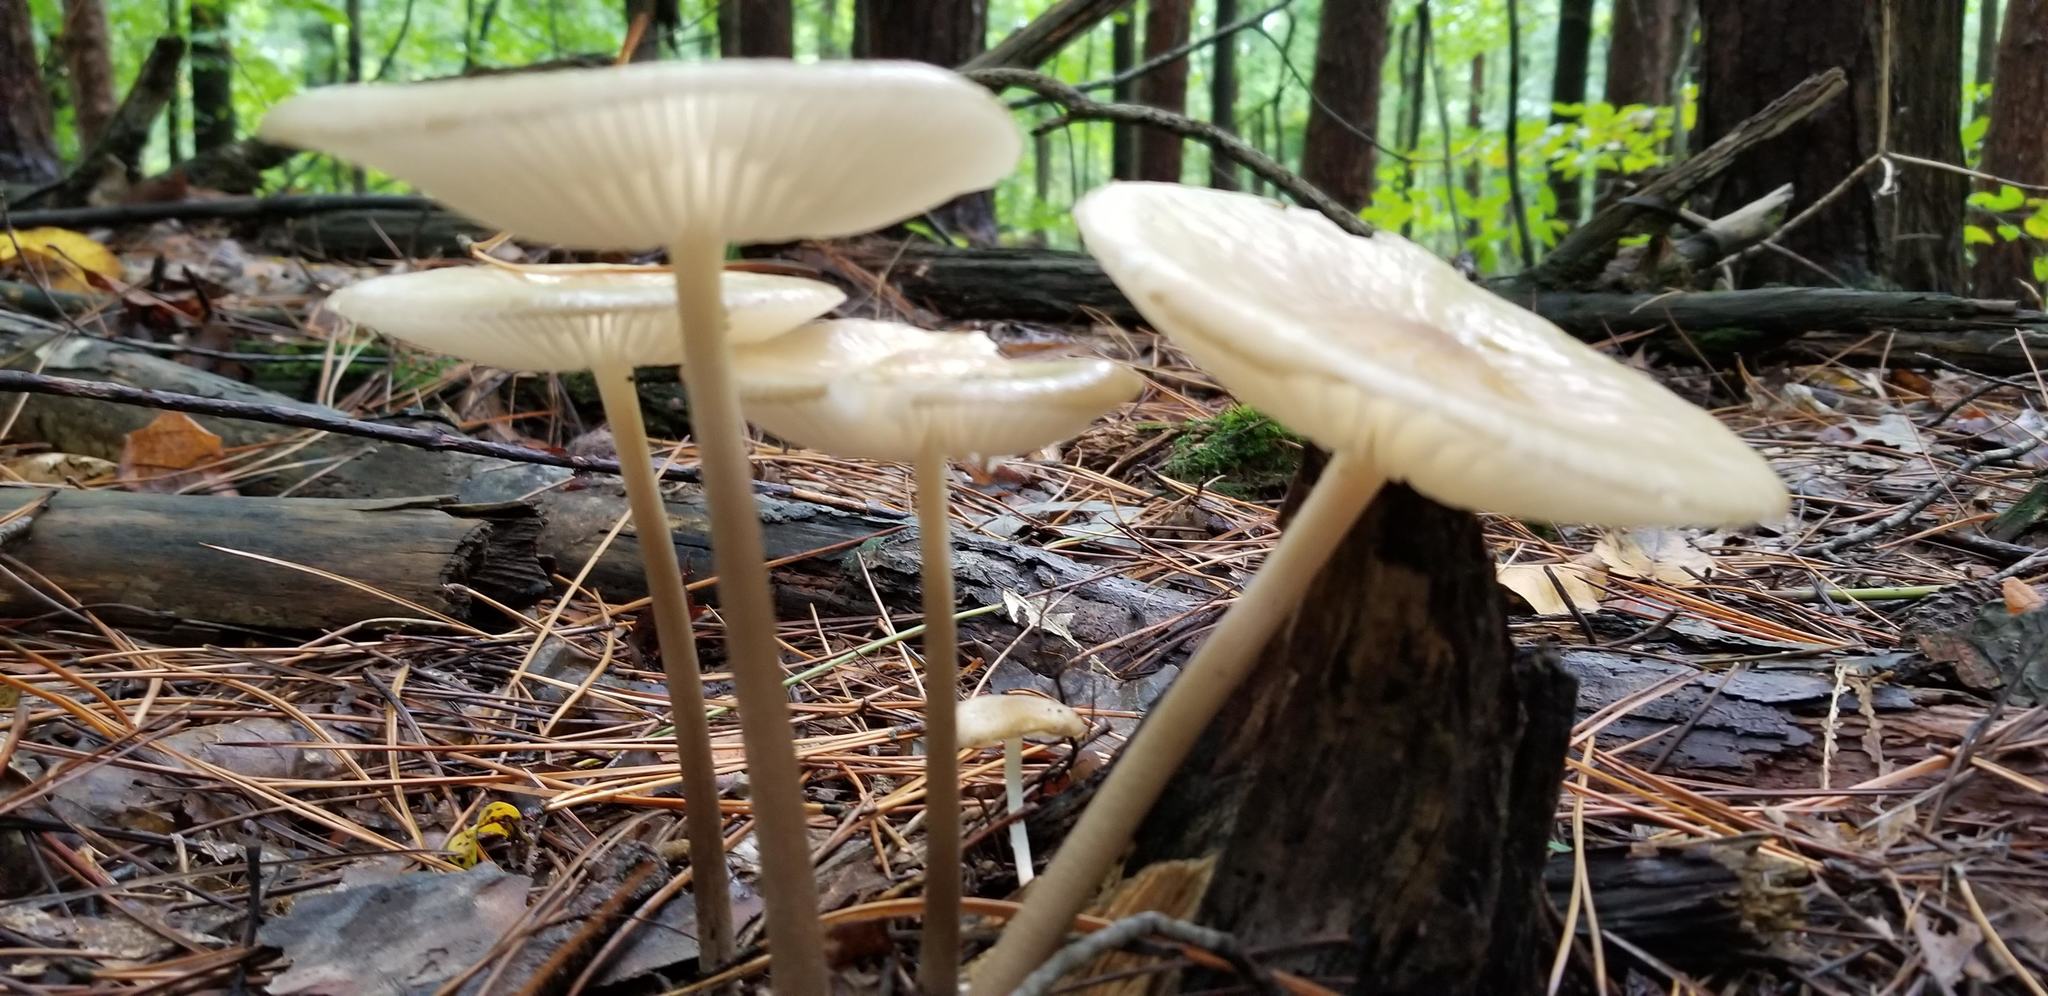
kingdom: Fungi
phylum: Basidiomycota
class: Agaricomycetes
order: Agaricales
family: Physalacriaceae
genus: Hymenopellis
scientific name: Hymenopellis furfuracea
